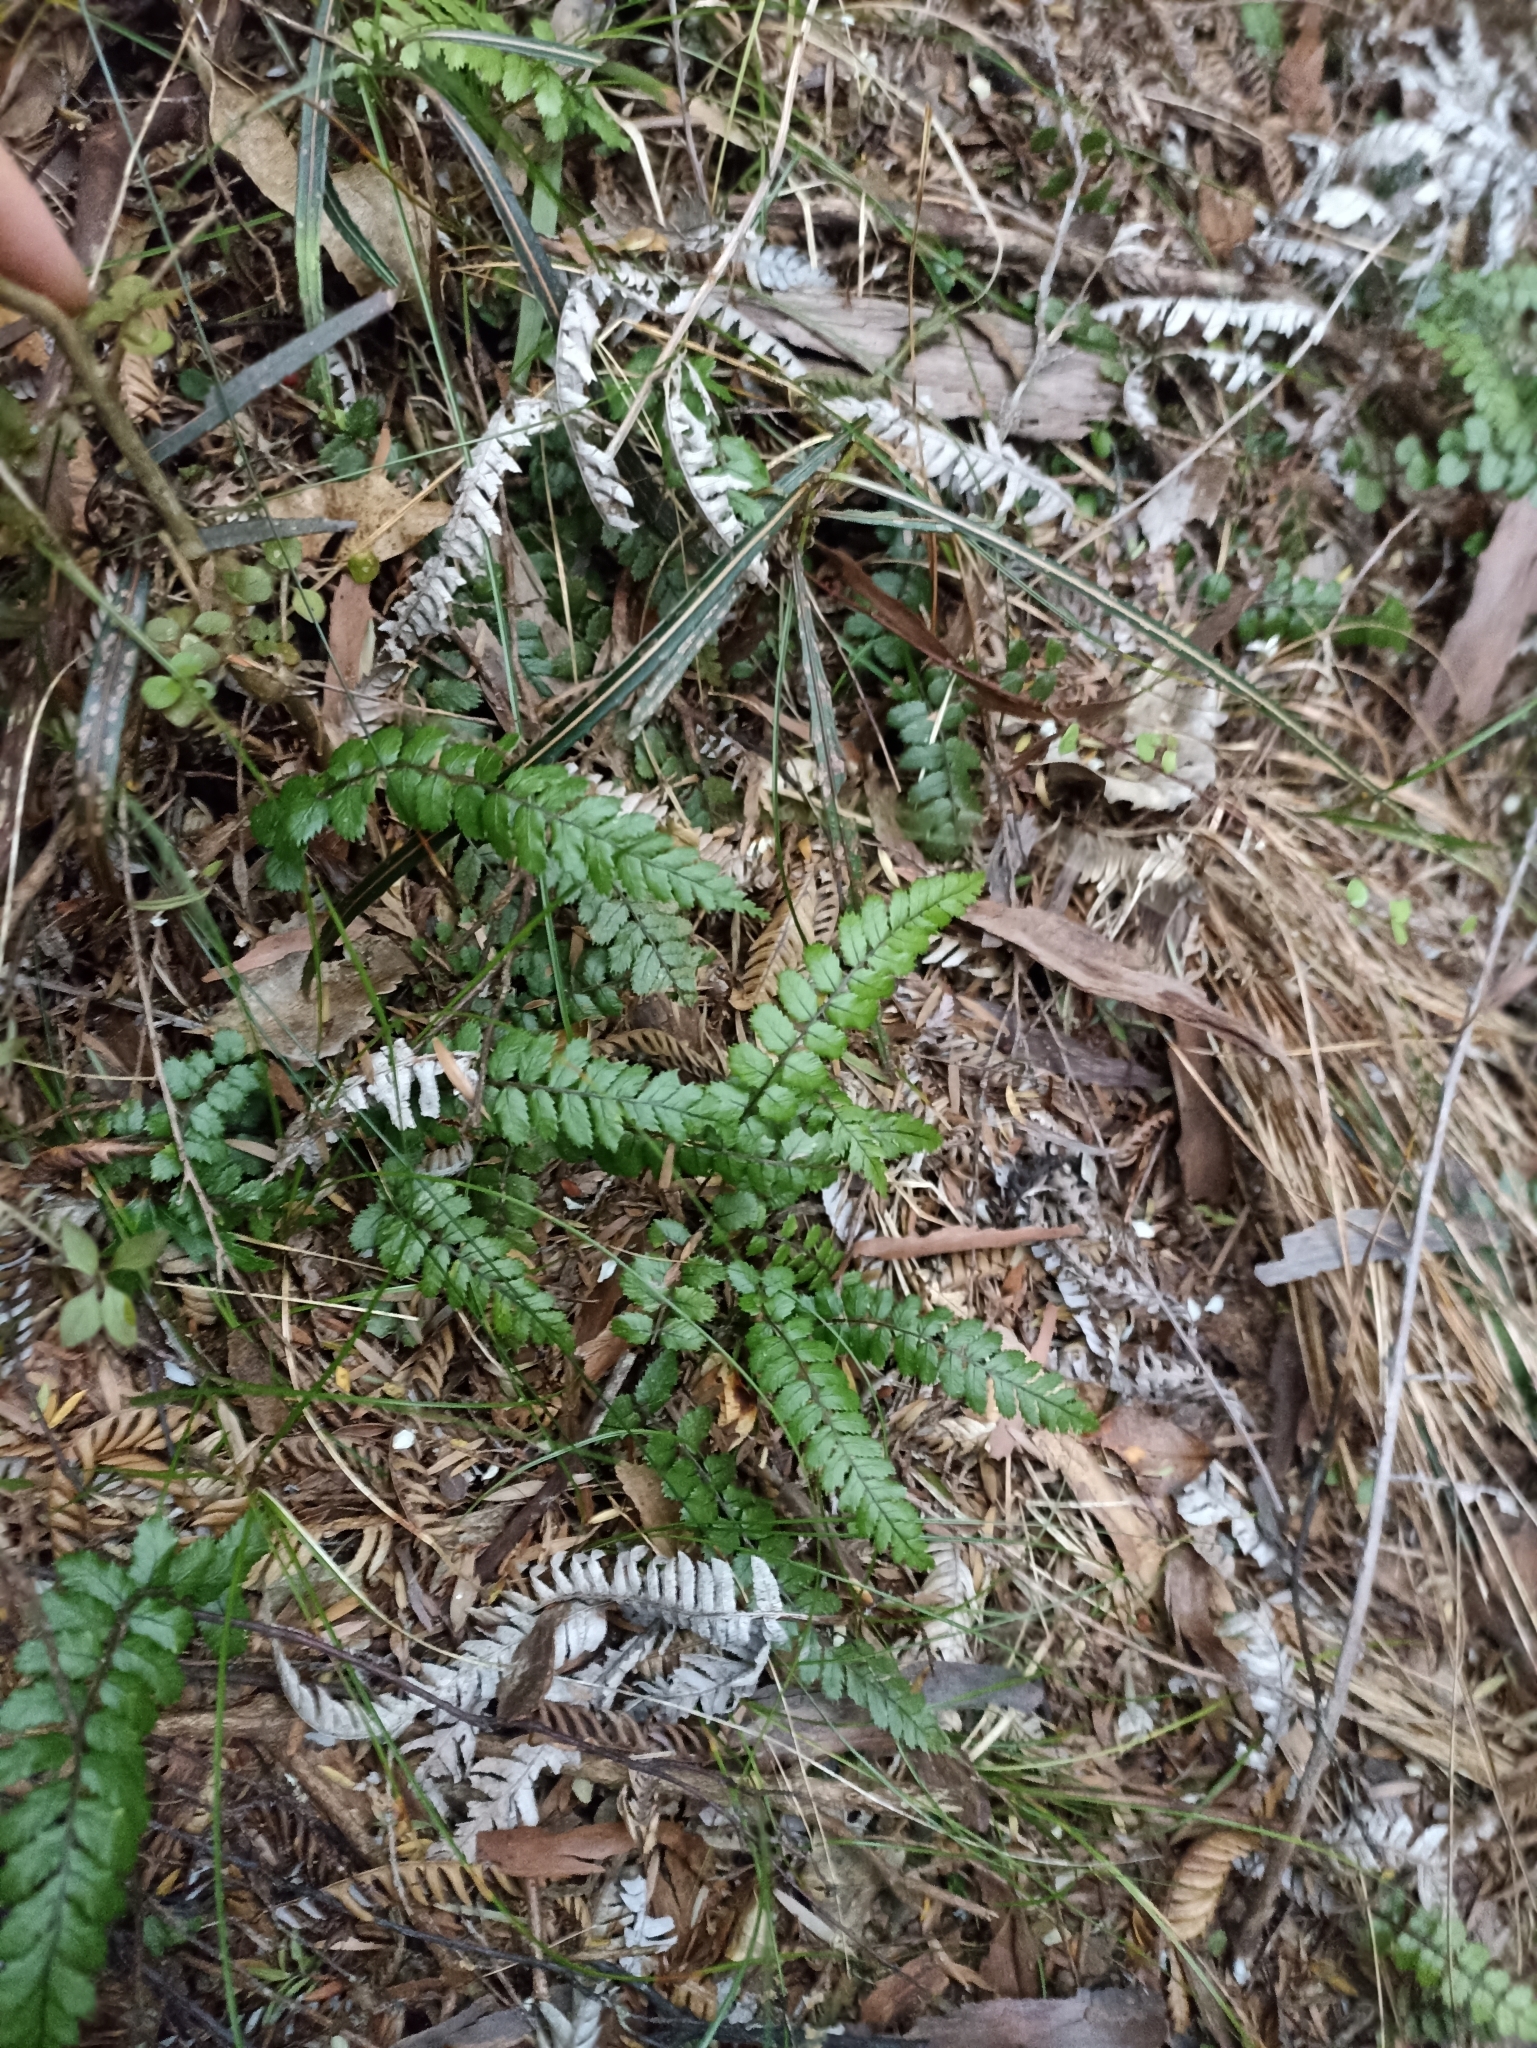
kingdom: Plantae
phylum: Tracheophyta
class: Polypodiopsida
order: Polypodiales
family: Blechnaceae
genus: Icarus
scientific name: Icarus filiformis
